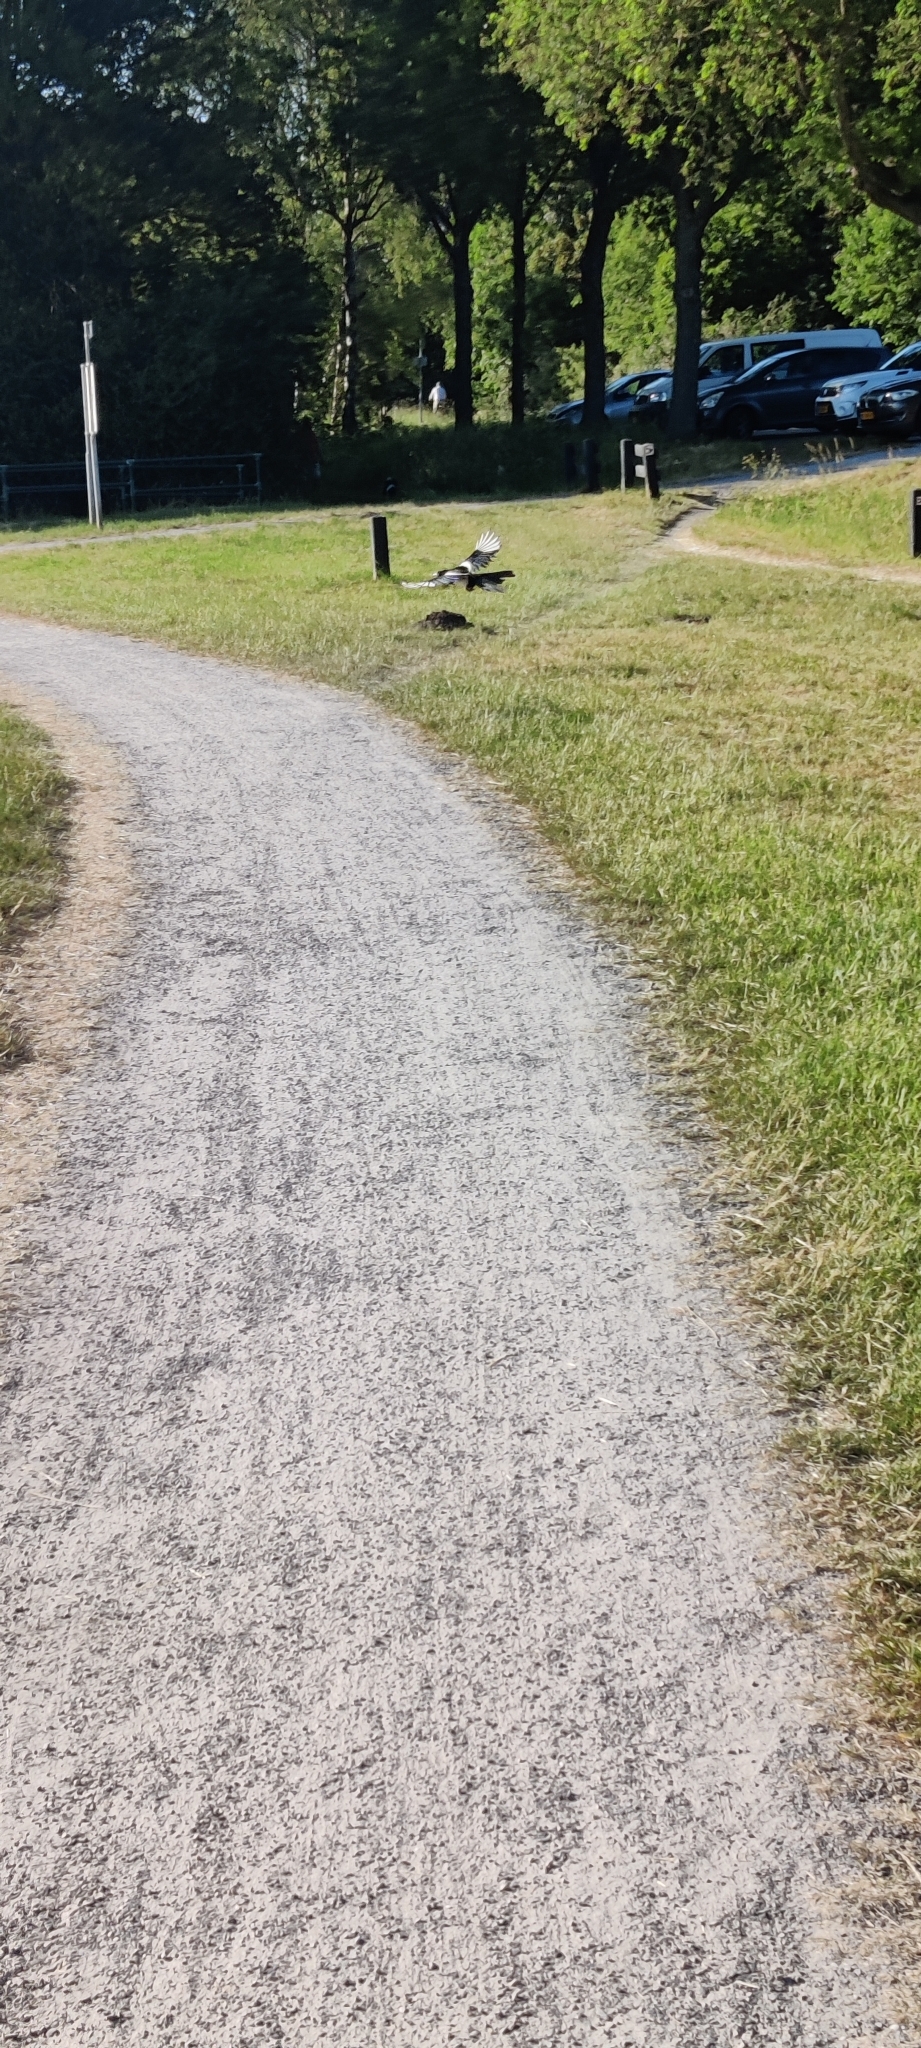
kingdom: Animalia
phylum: Chordata
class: Aves
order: Passeriformes
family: Corvidae
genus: Pica
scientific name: Pica pica
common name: Eurasian magpie
